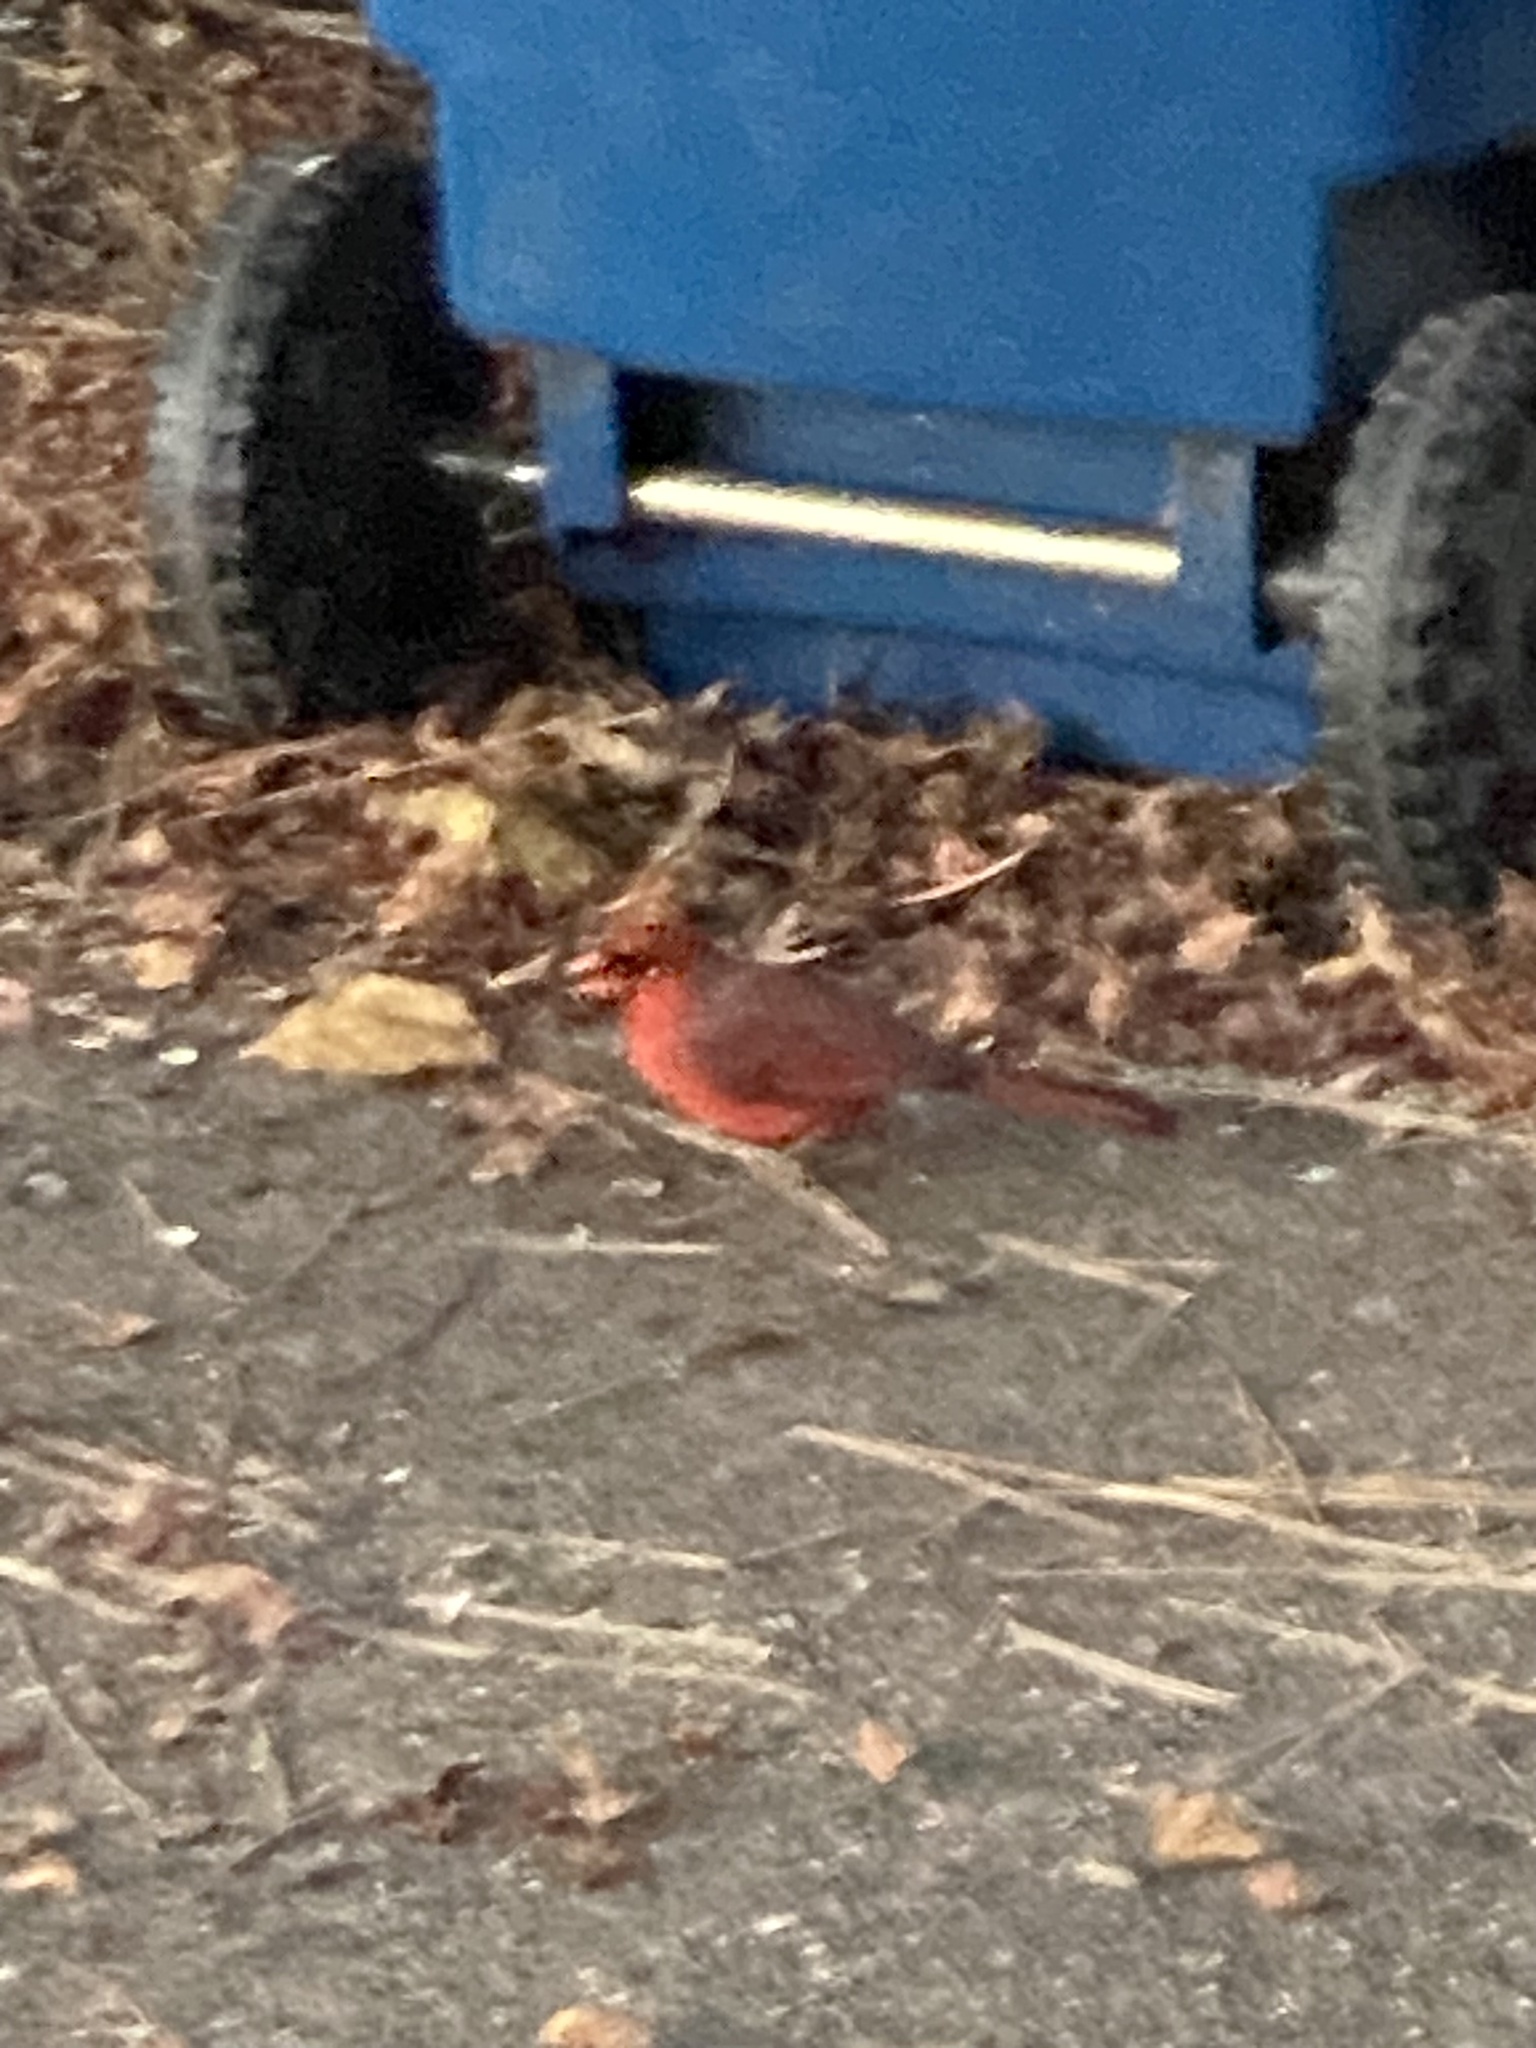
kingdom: Animalia
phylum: Chordata
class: Aves
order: Passeriformes
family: Cardinalidae
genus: Cardinalis
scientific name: Cardinalis cardinalis
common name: Northern cardinal
